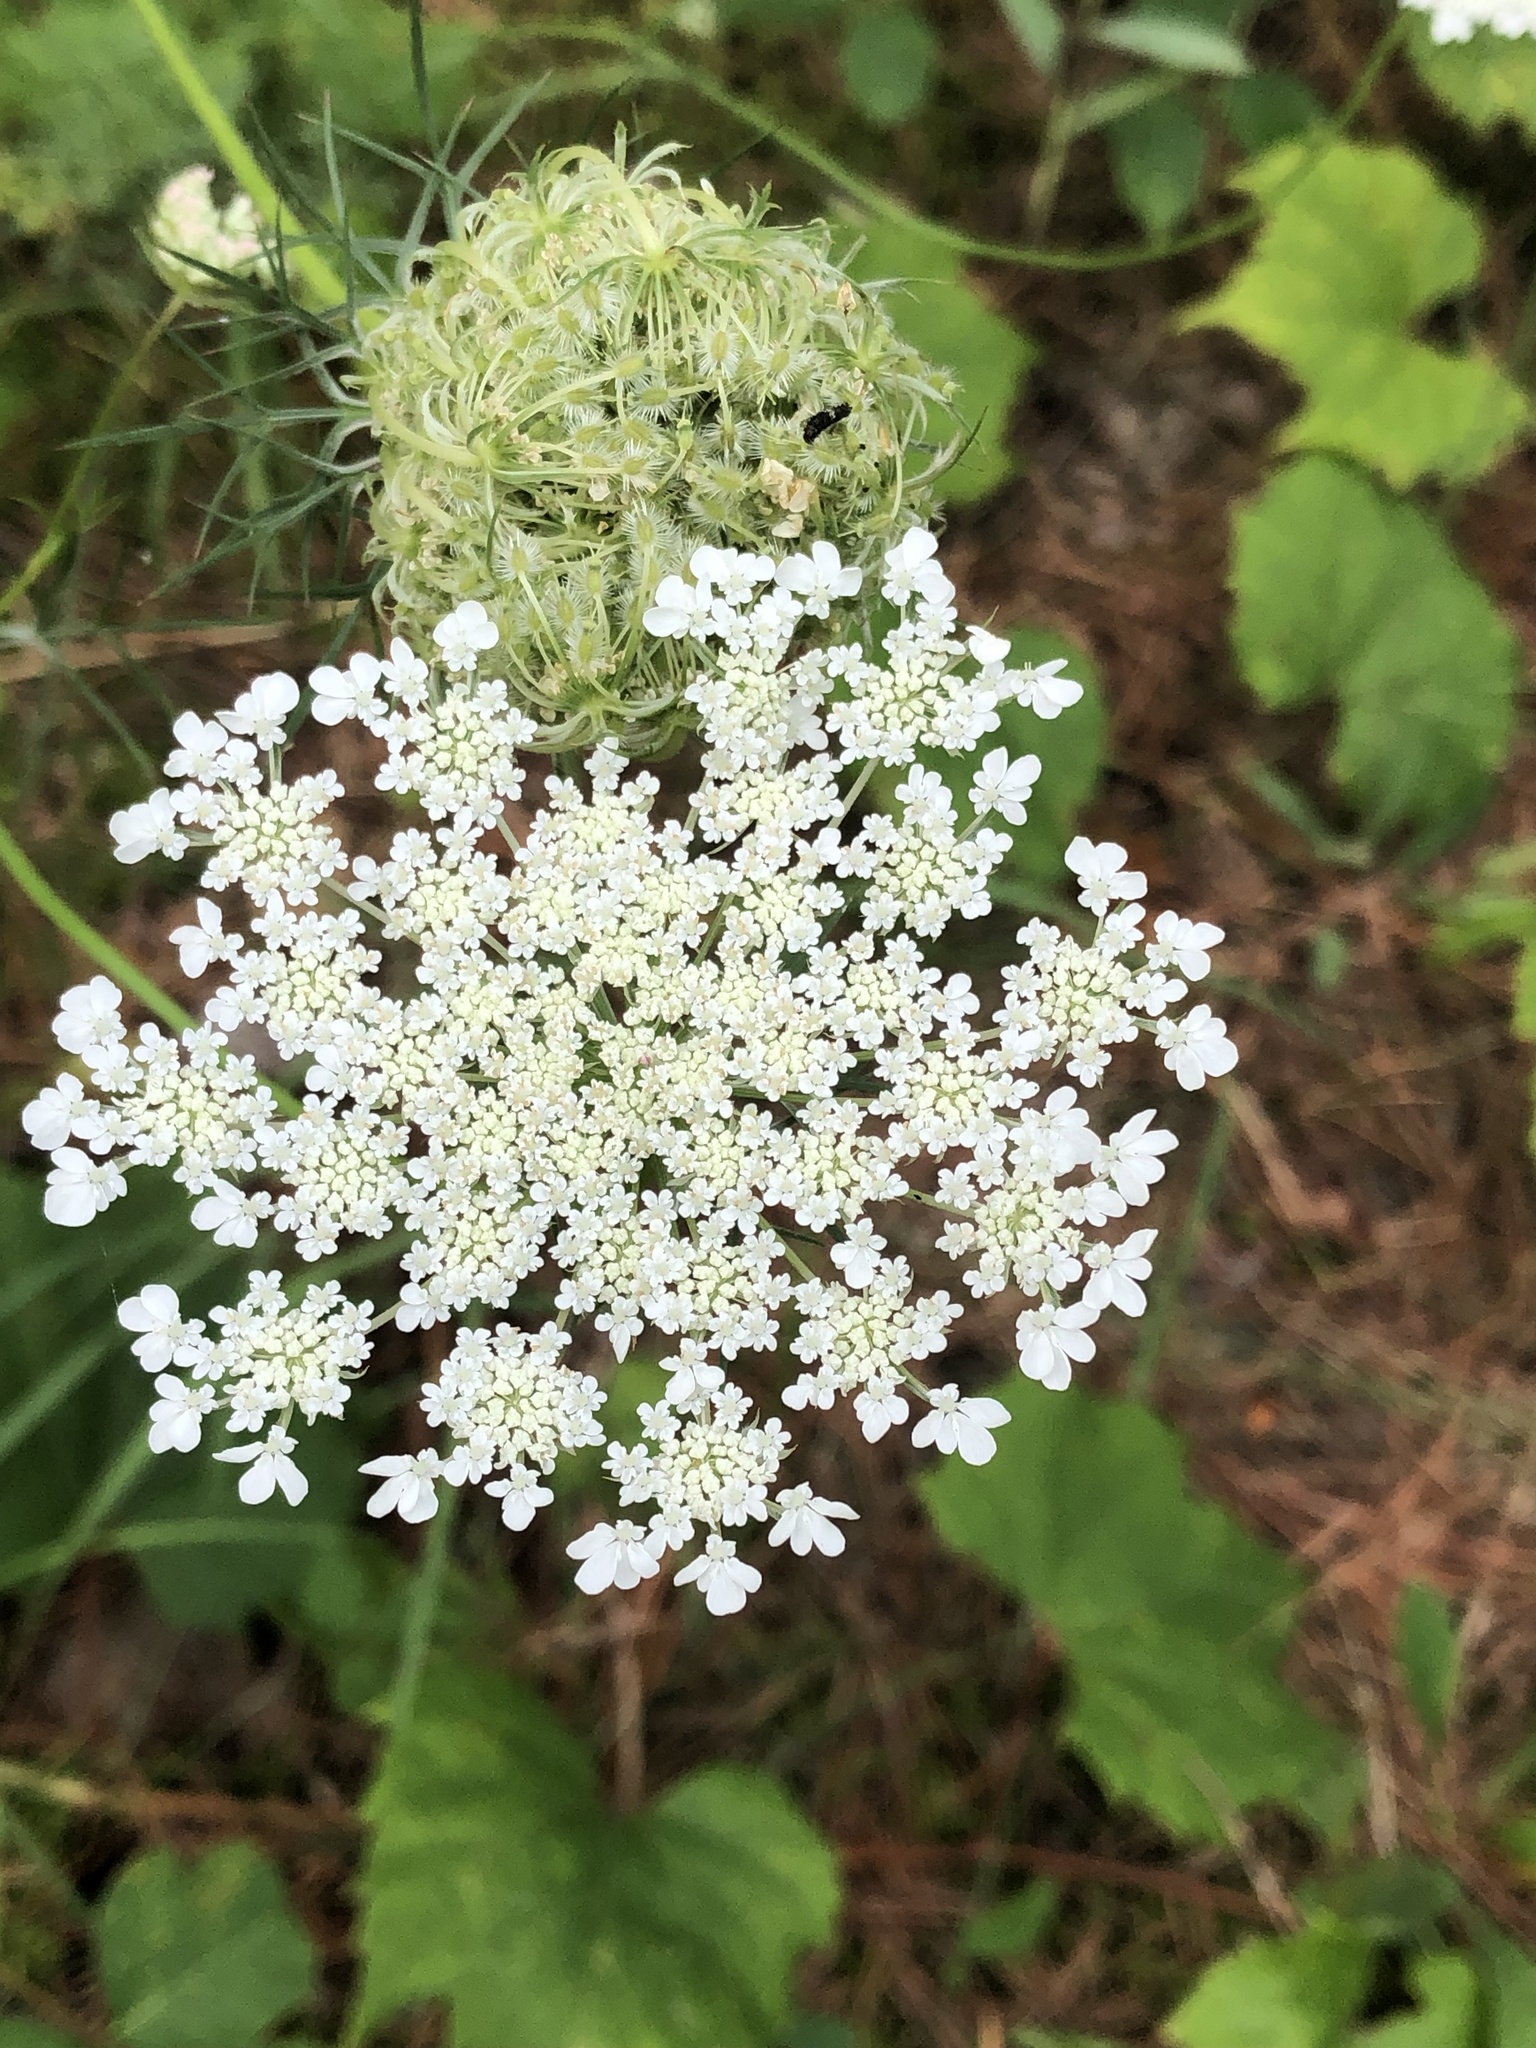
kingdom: Plantae
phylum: Tracheophyta
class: Magnoliopsida
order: Apiales
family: Apiaceae
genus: Daucus
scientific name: Daucus carota
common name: Wild carrot
